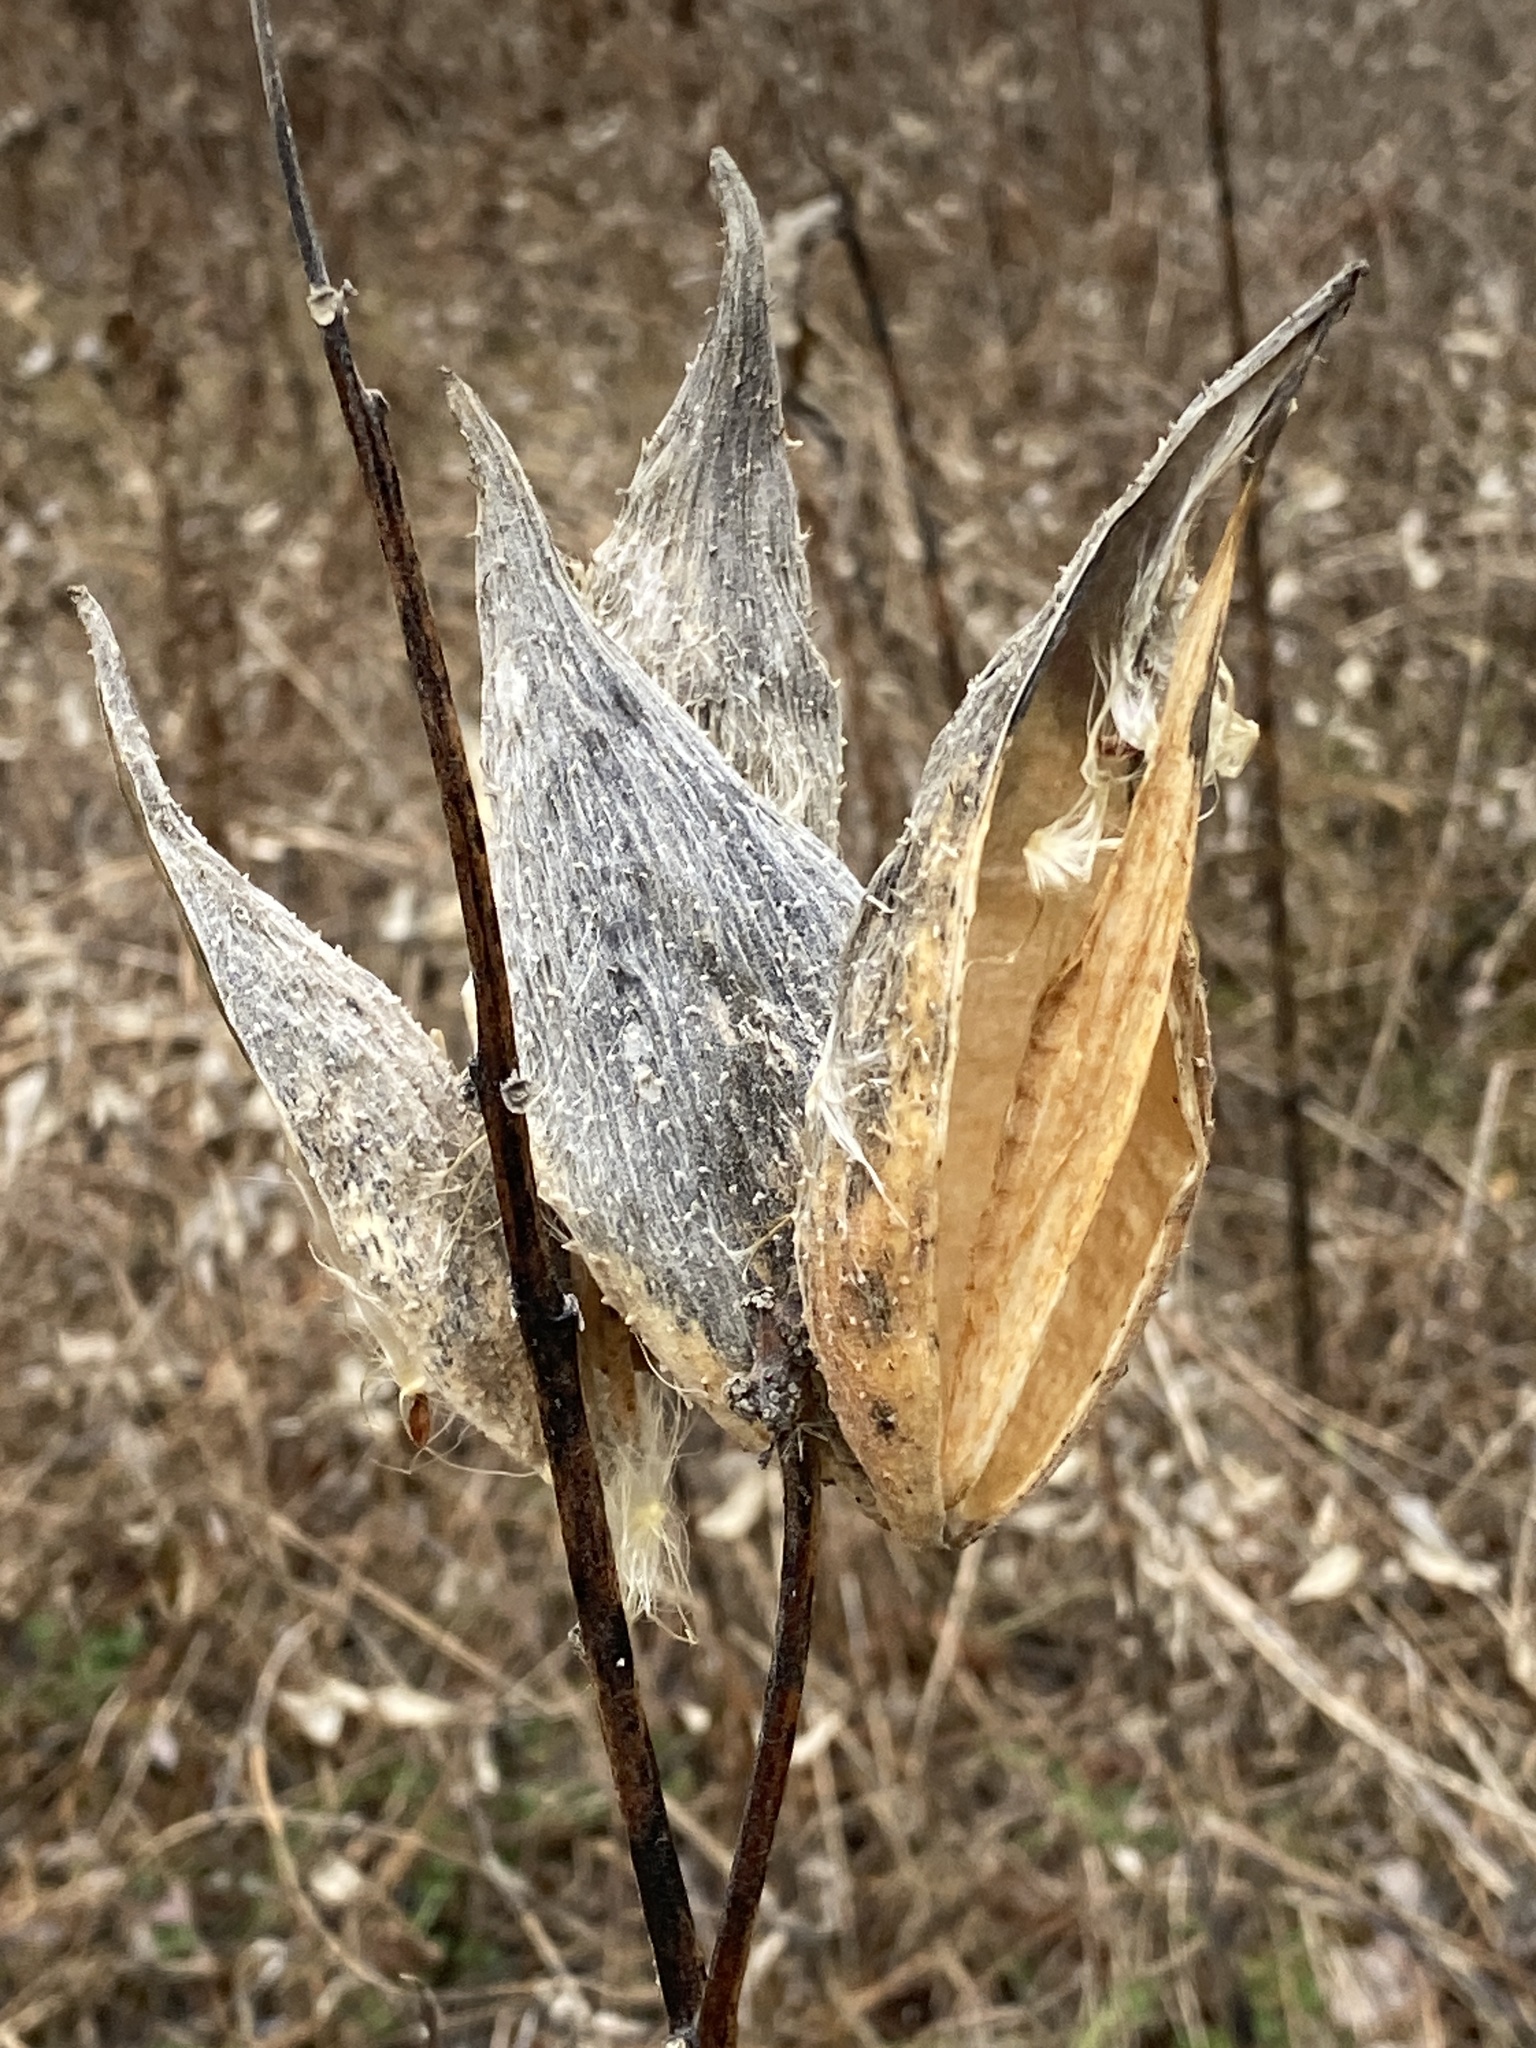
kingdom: Plantae
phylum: Tracheophyta
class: Magnoliopsida
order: Gentianales
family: Apocynaceae
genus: Asclepias
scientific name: Asclepias syriaca
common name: Common milkweed
